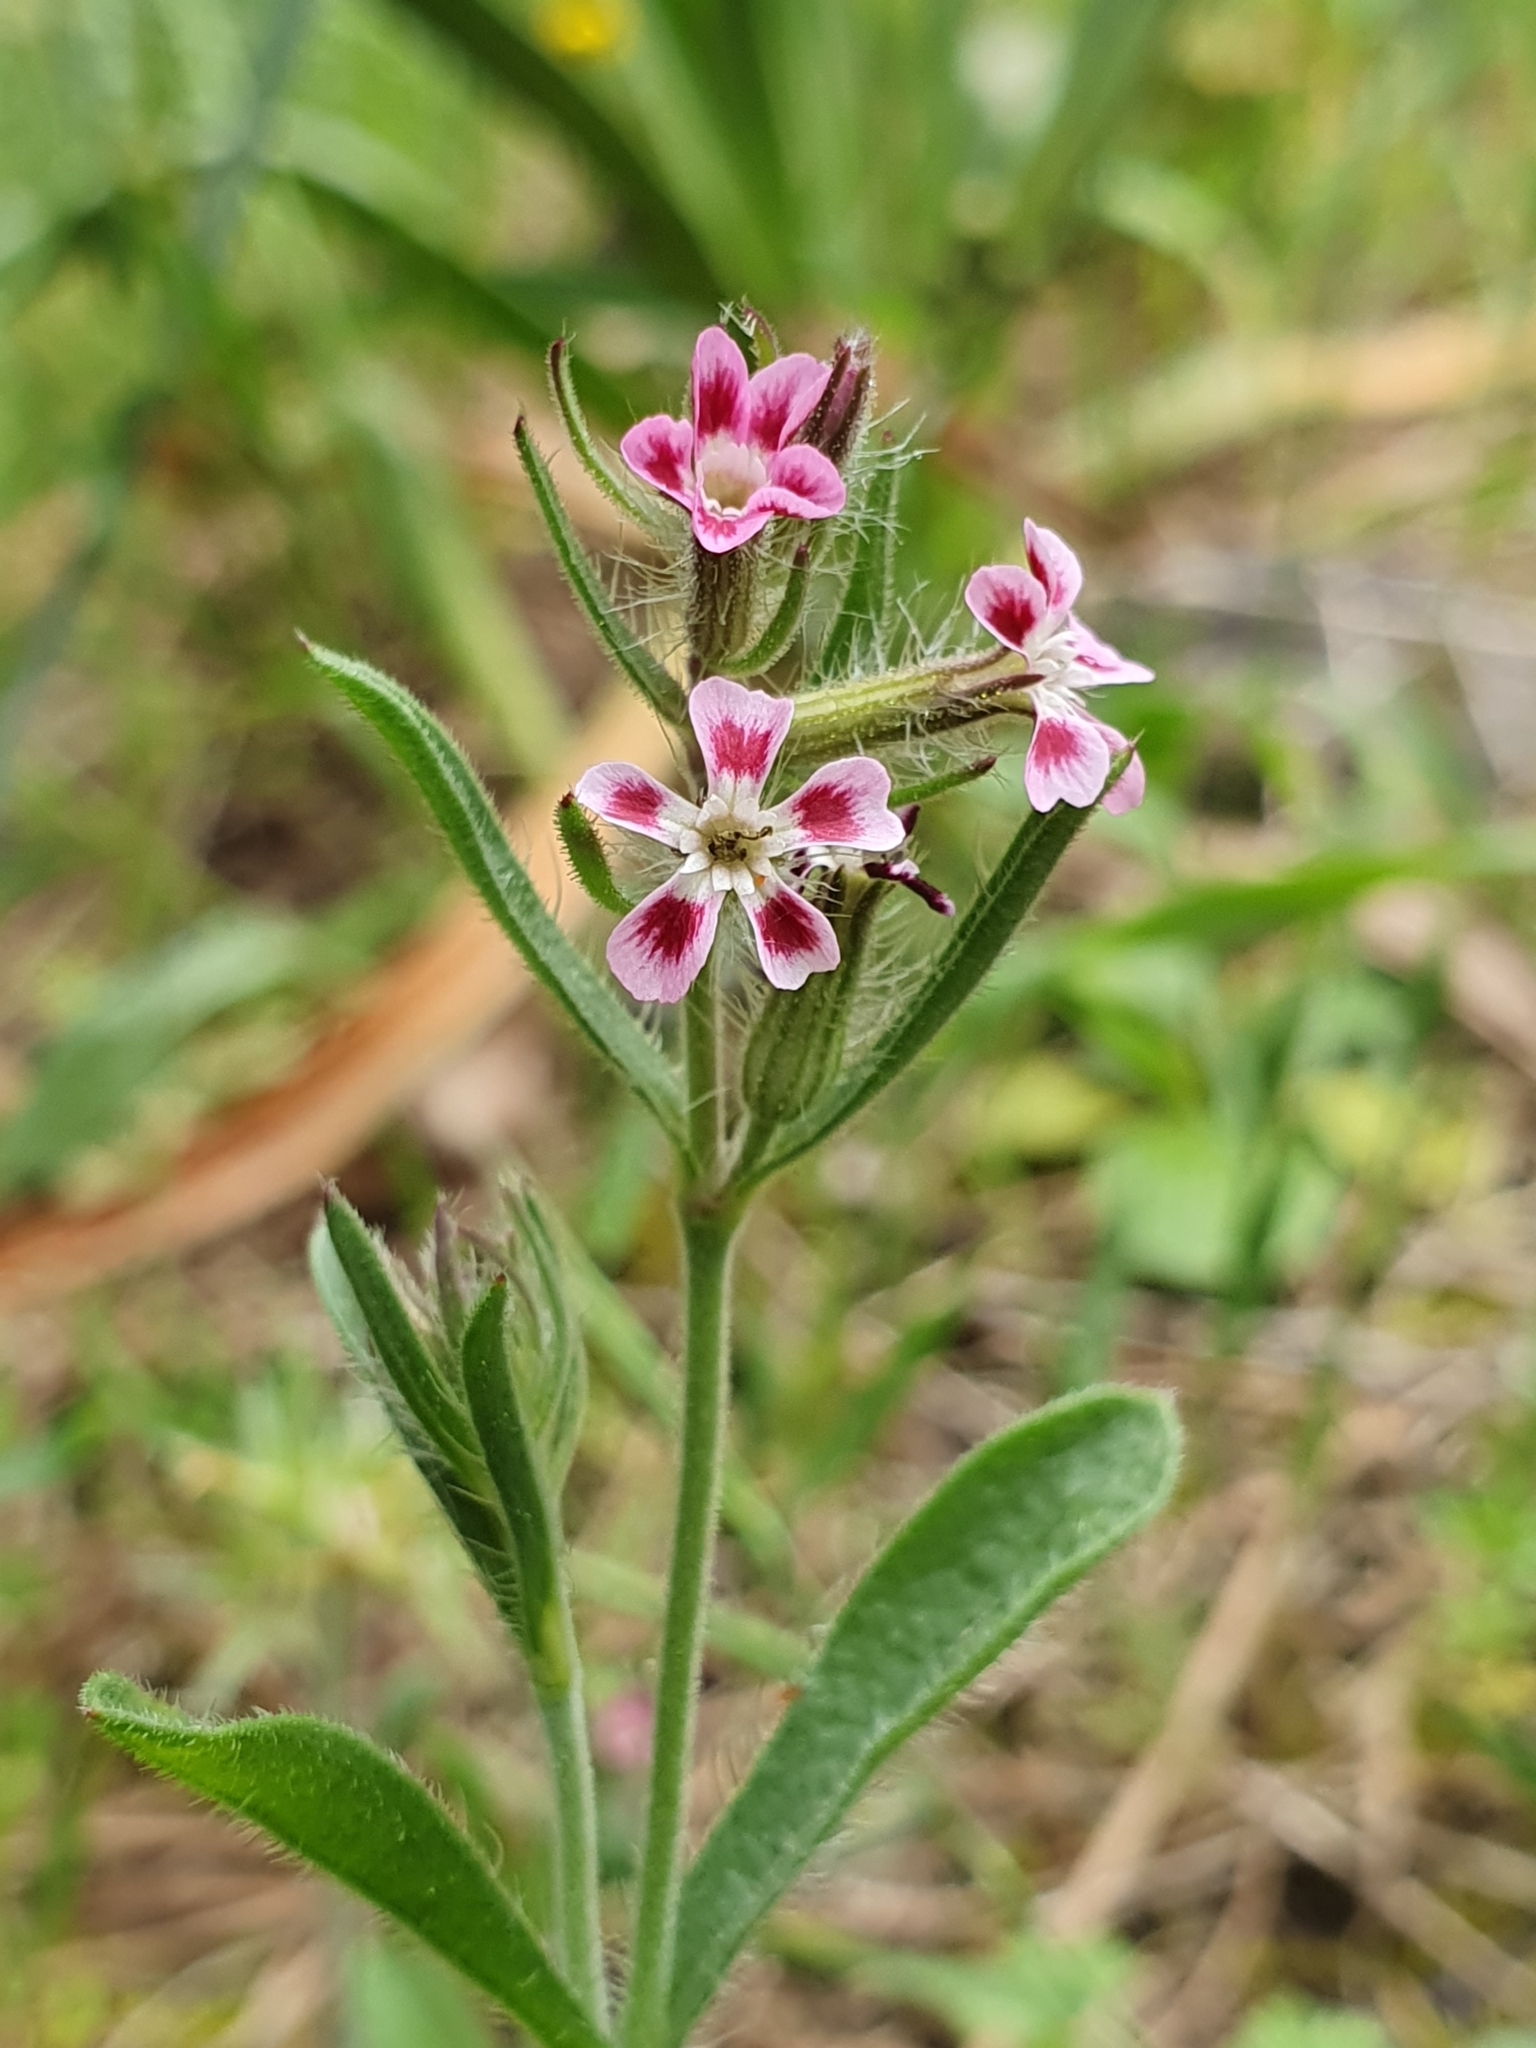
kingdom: Plantae
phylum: Tracheophyta
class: Magnoliopsida
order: Caryophyllales
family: Caryophyllaceae
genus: Silene
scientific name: Silene gallica
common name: Small-flowered catchfly
